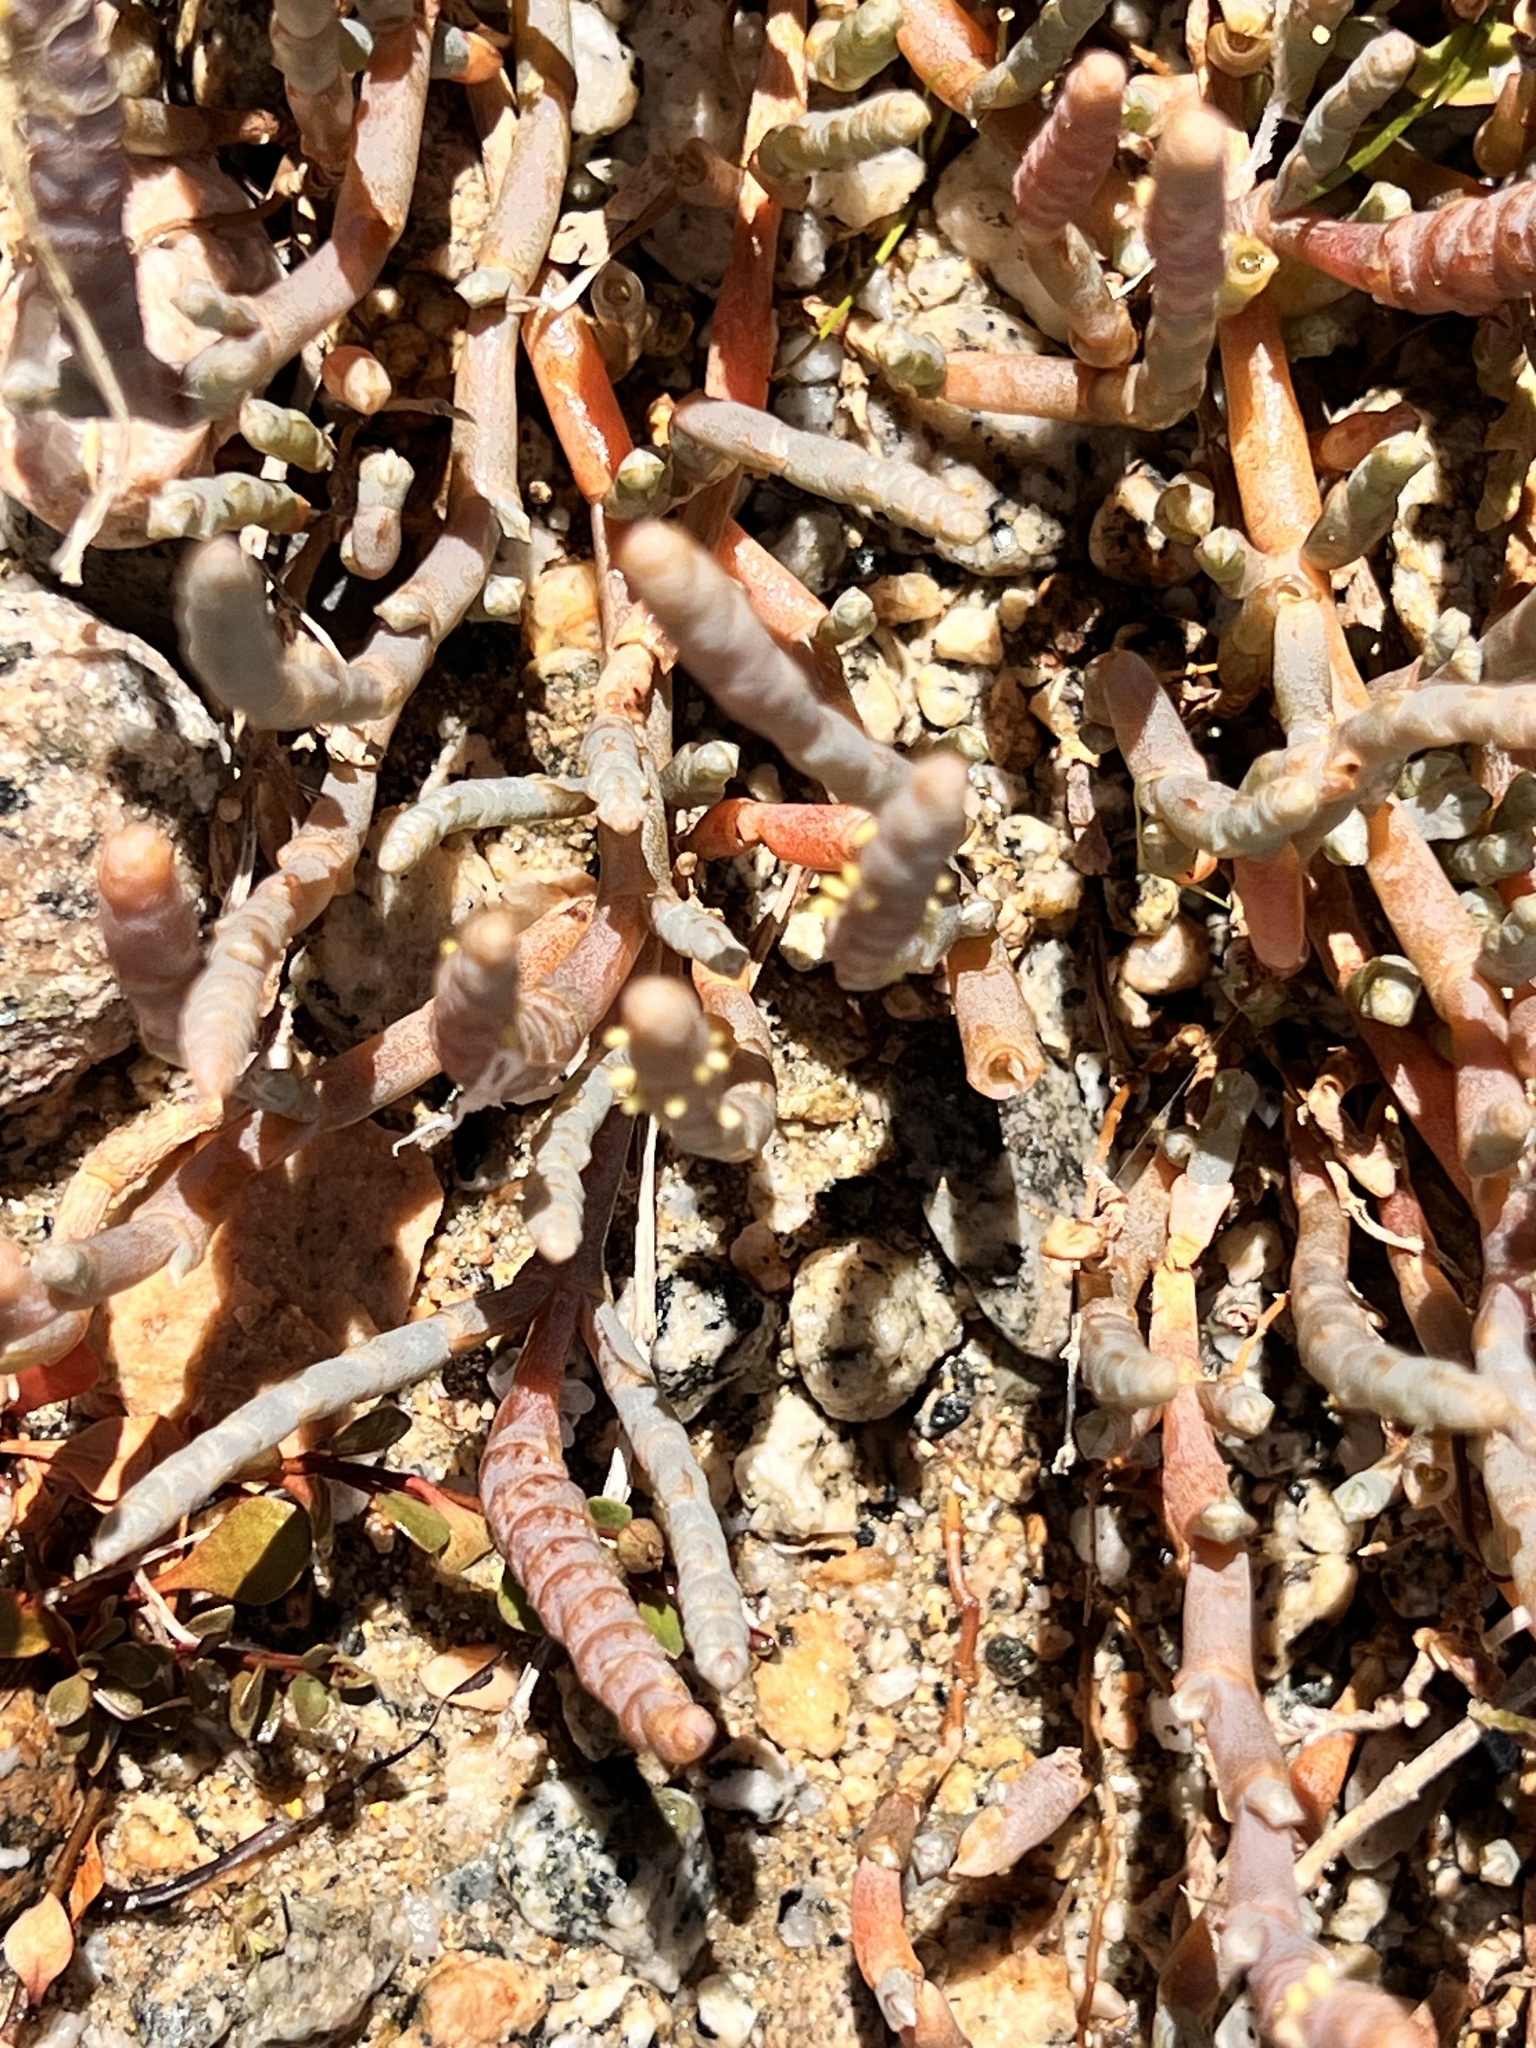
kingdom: Plantae
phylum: Tracheophyta
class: Magnoliopsida
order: Caryophyllales
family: Amaranthaceae
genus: Salicornia
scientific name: Salicornia quinqueflora
